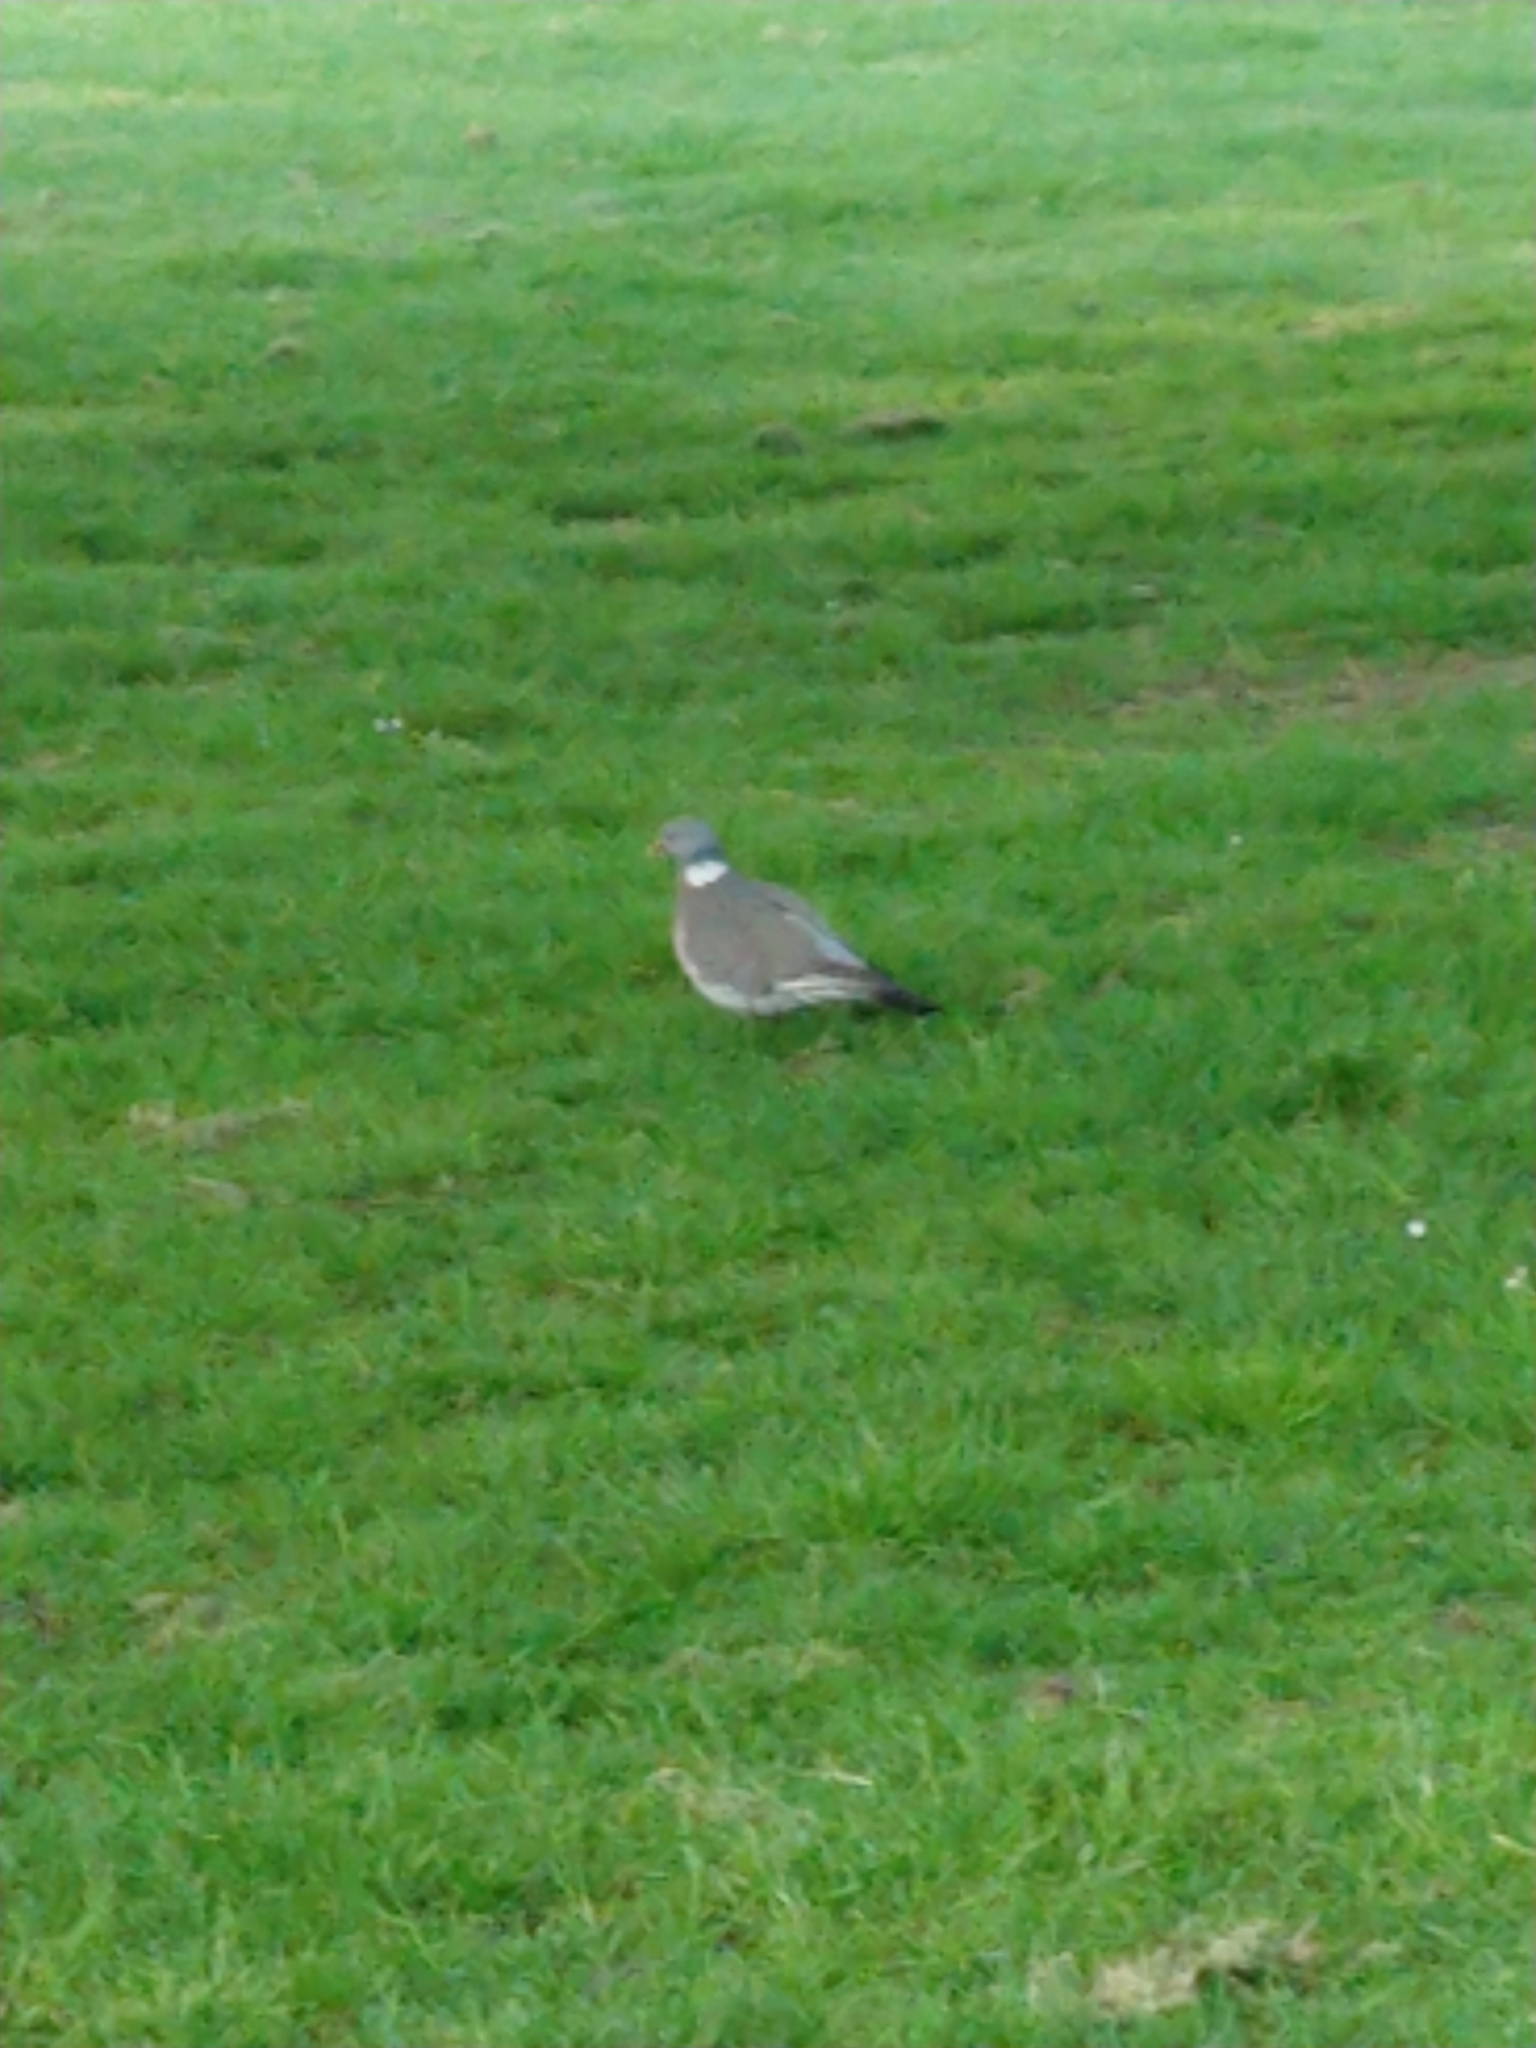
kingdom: Animalia
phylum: Chordata
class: Aves
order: Columbiformes
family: Columbidae
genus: Columba
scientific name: Columba palumbus
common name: Common wood pigeon
